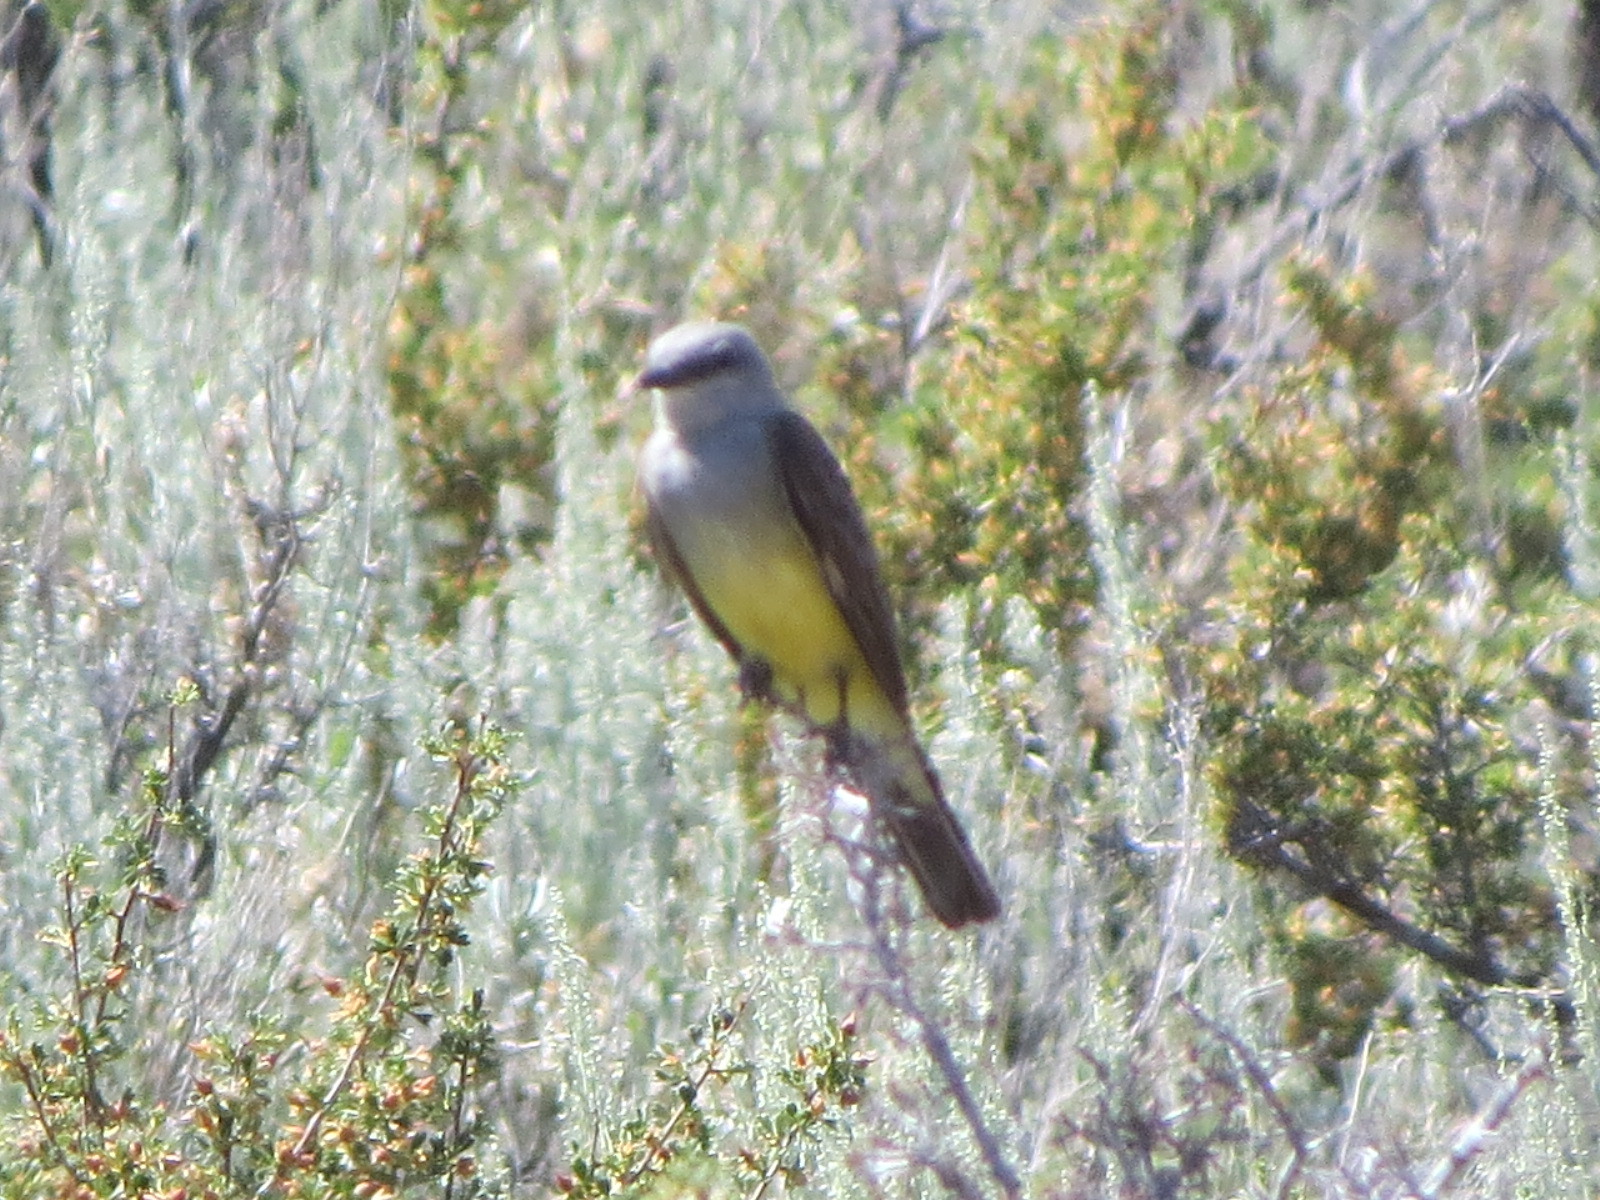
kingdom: Animalia
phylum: Chordata
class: Aves
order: Passeriformes
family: Tyrannidae
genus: Tyrannus
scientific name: Tyrannus verticalis
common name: Western kingbird
